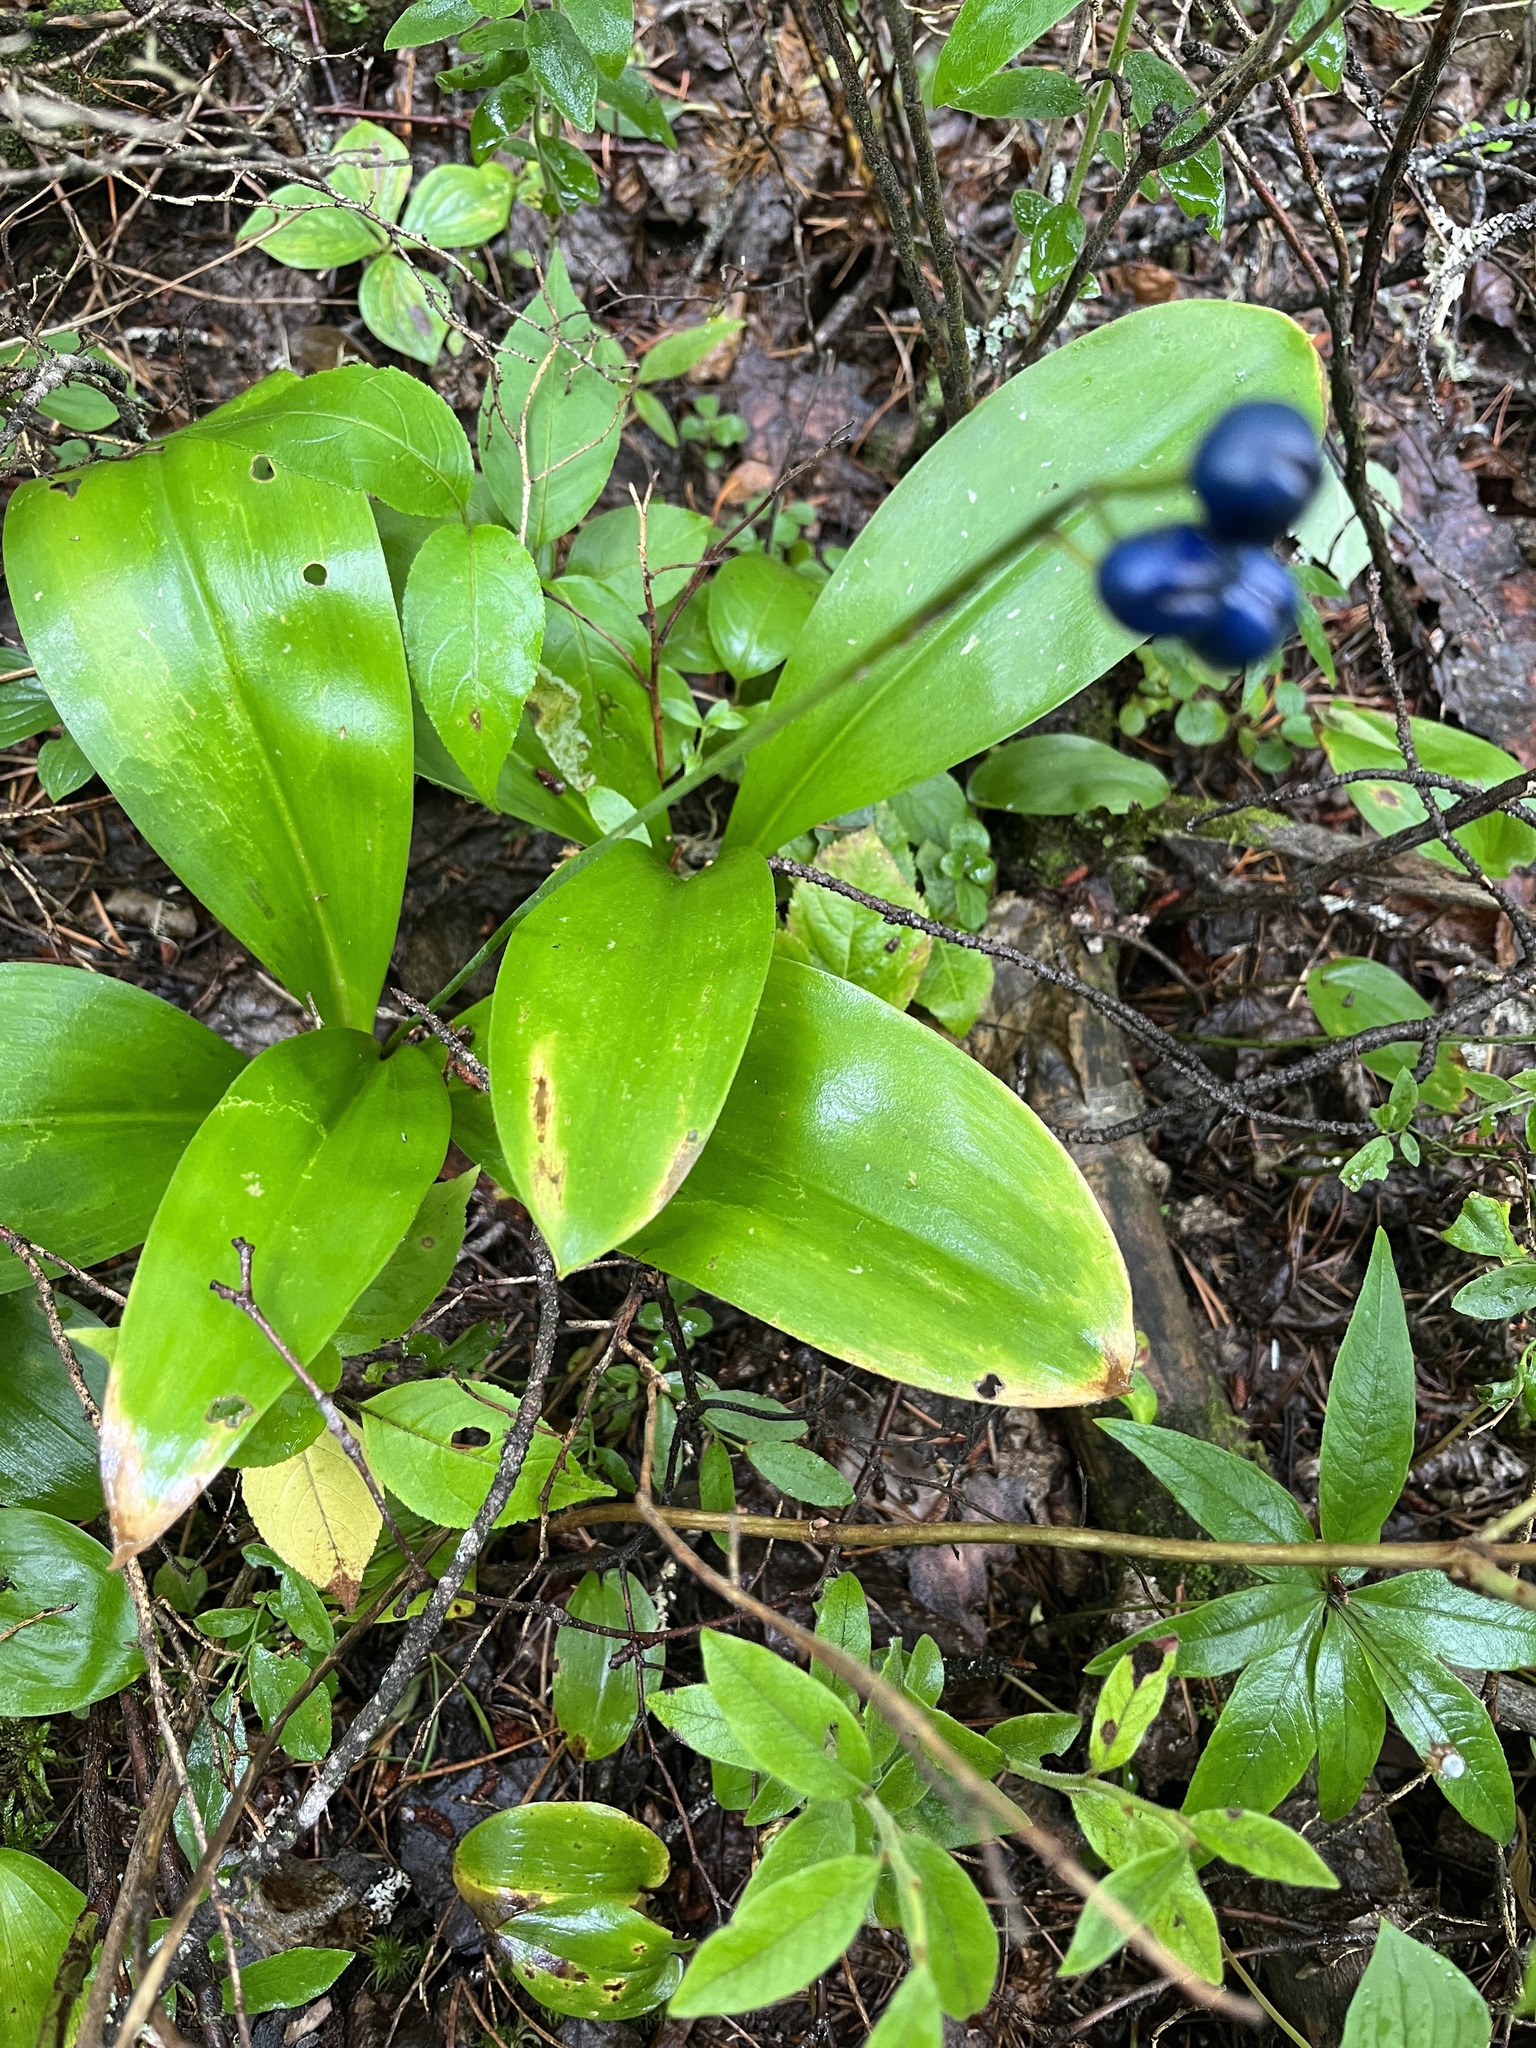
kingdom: Plantae
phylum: Tracheophyta
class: Liliopsida
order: Liliales
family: Liliaceae
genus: Clintonia
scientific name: Clintonia borealis
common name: Yellow clintonia
